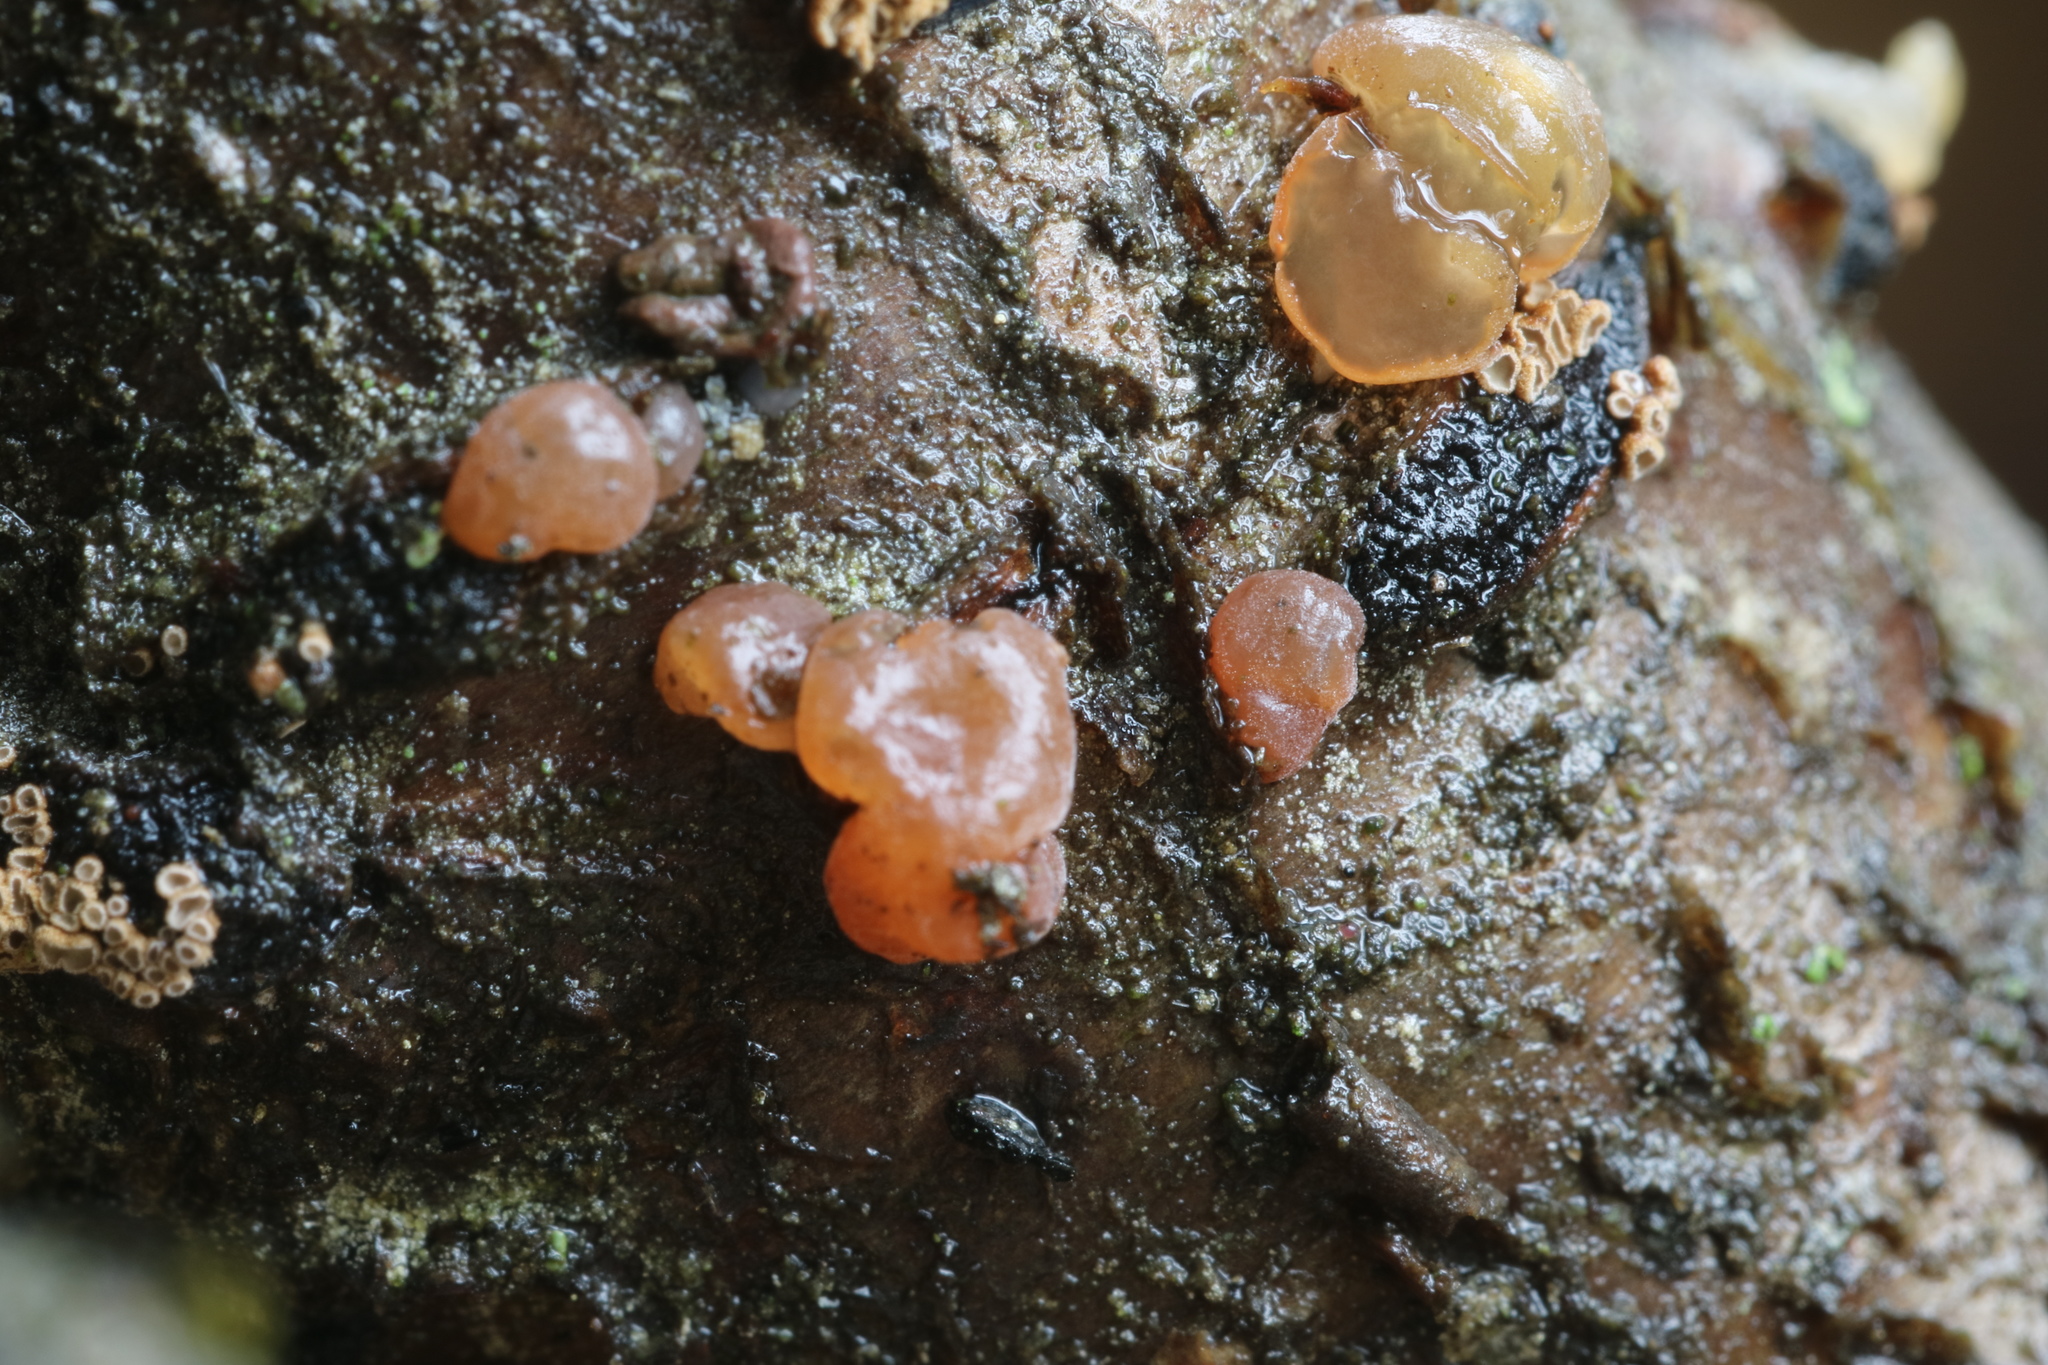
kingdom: Fungi
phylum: Basidiomycota
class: Agaricomycetes
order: Auriculariales
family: Hyaloriaceae
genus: Myxarium
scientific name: Myxarium nucleatum
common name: Crystal brain fungus
